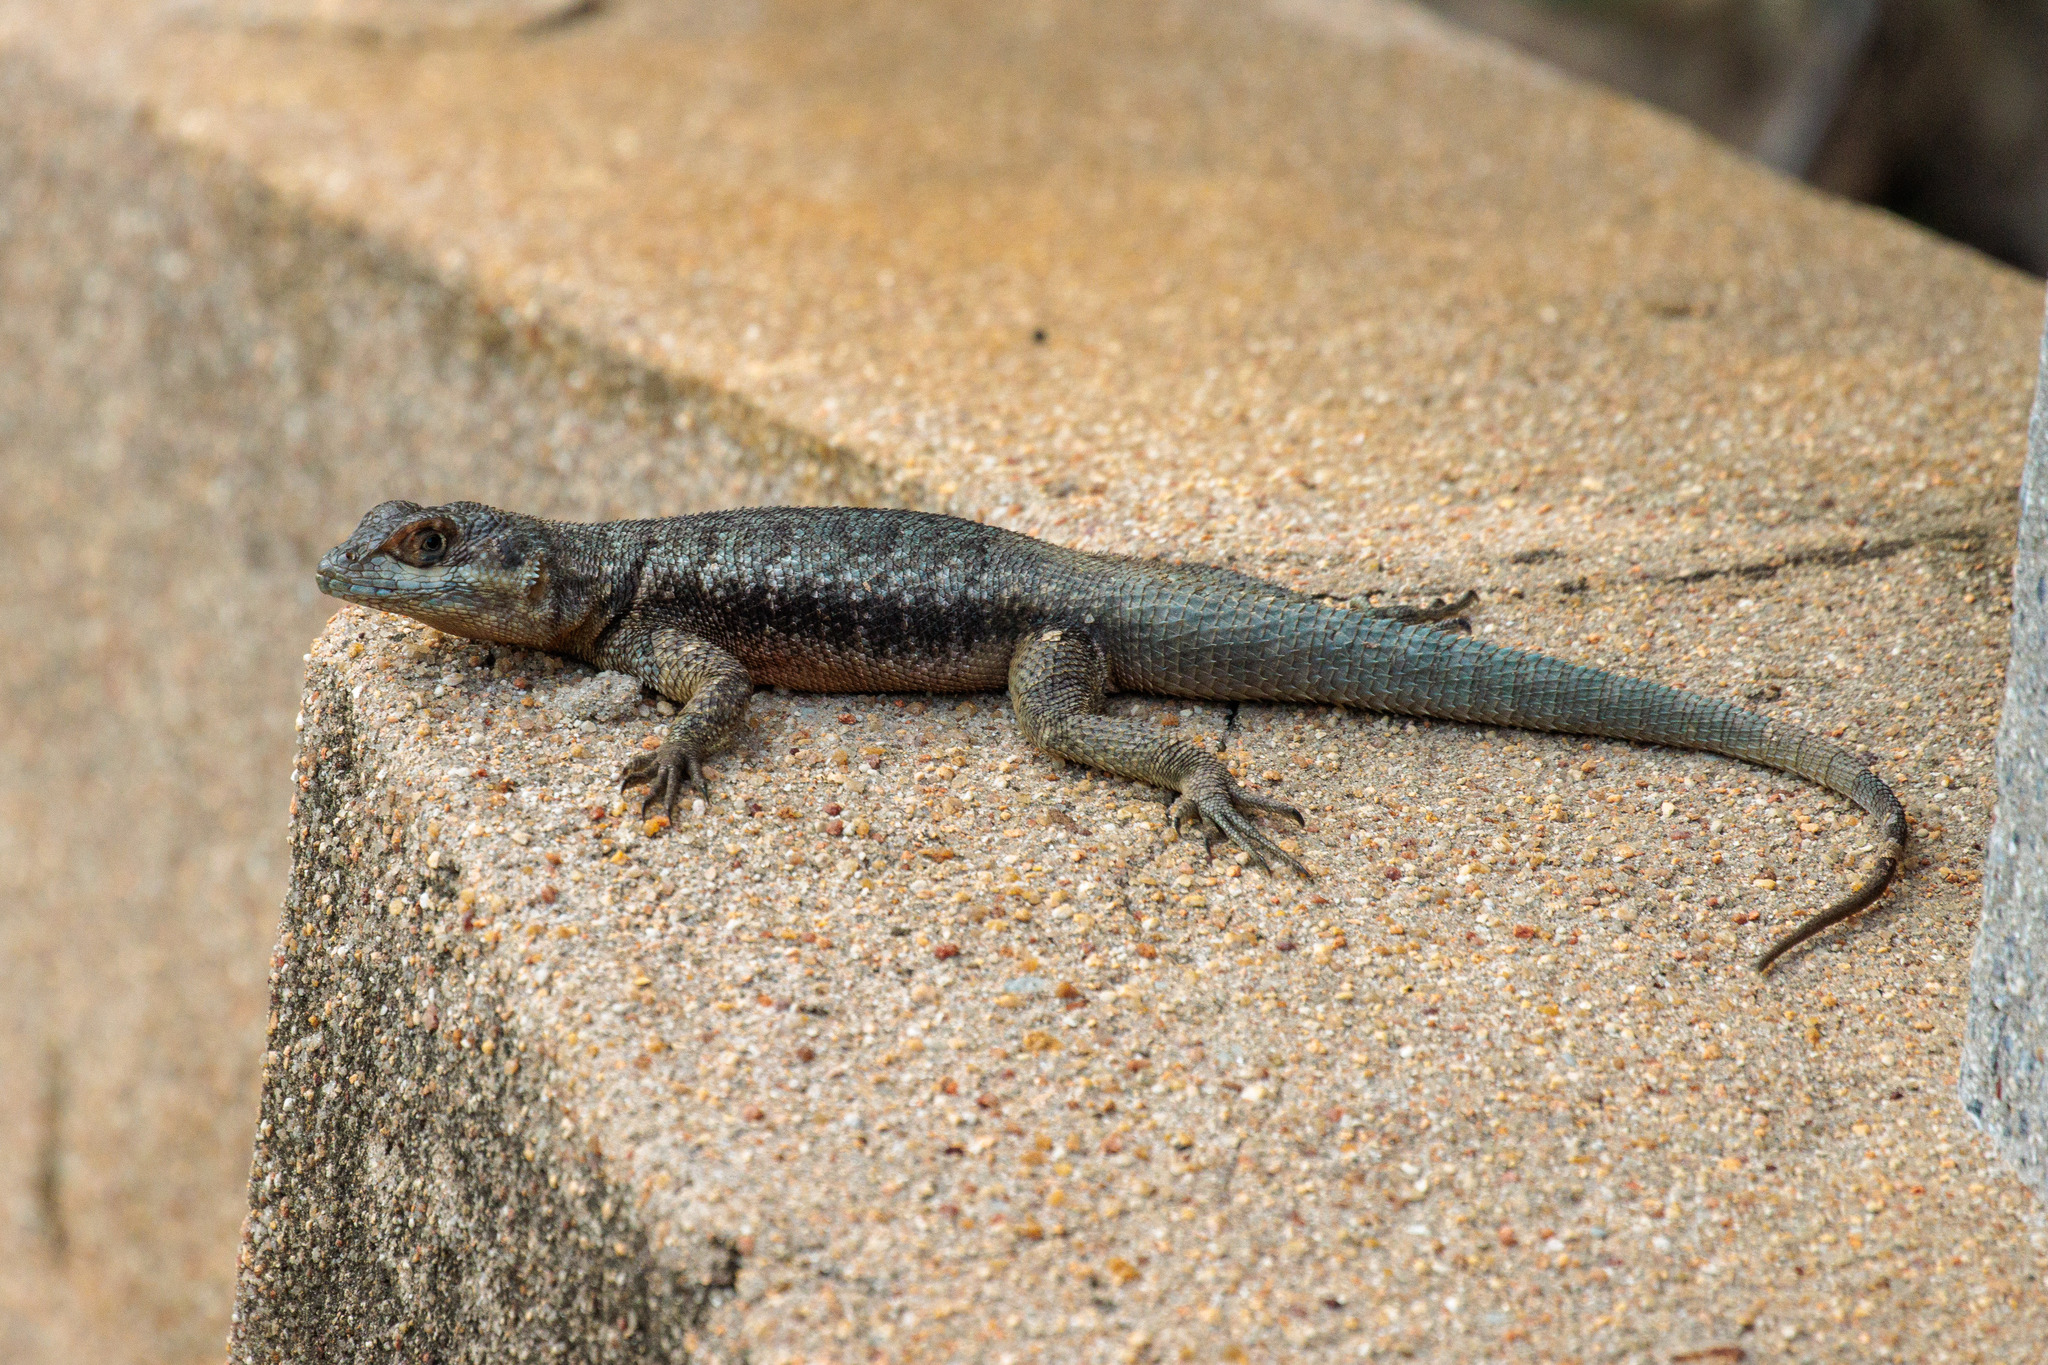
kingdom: Animalia
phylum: Chordata
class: Squamata
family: Tropiduridae
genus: Tropidurus
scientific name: Tropidurus hispidus
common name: Peters' lava lizard
